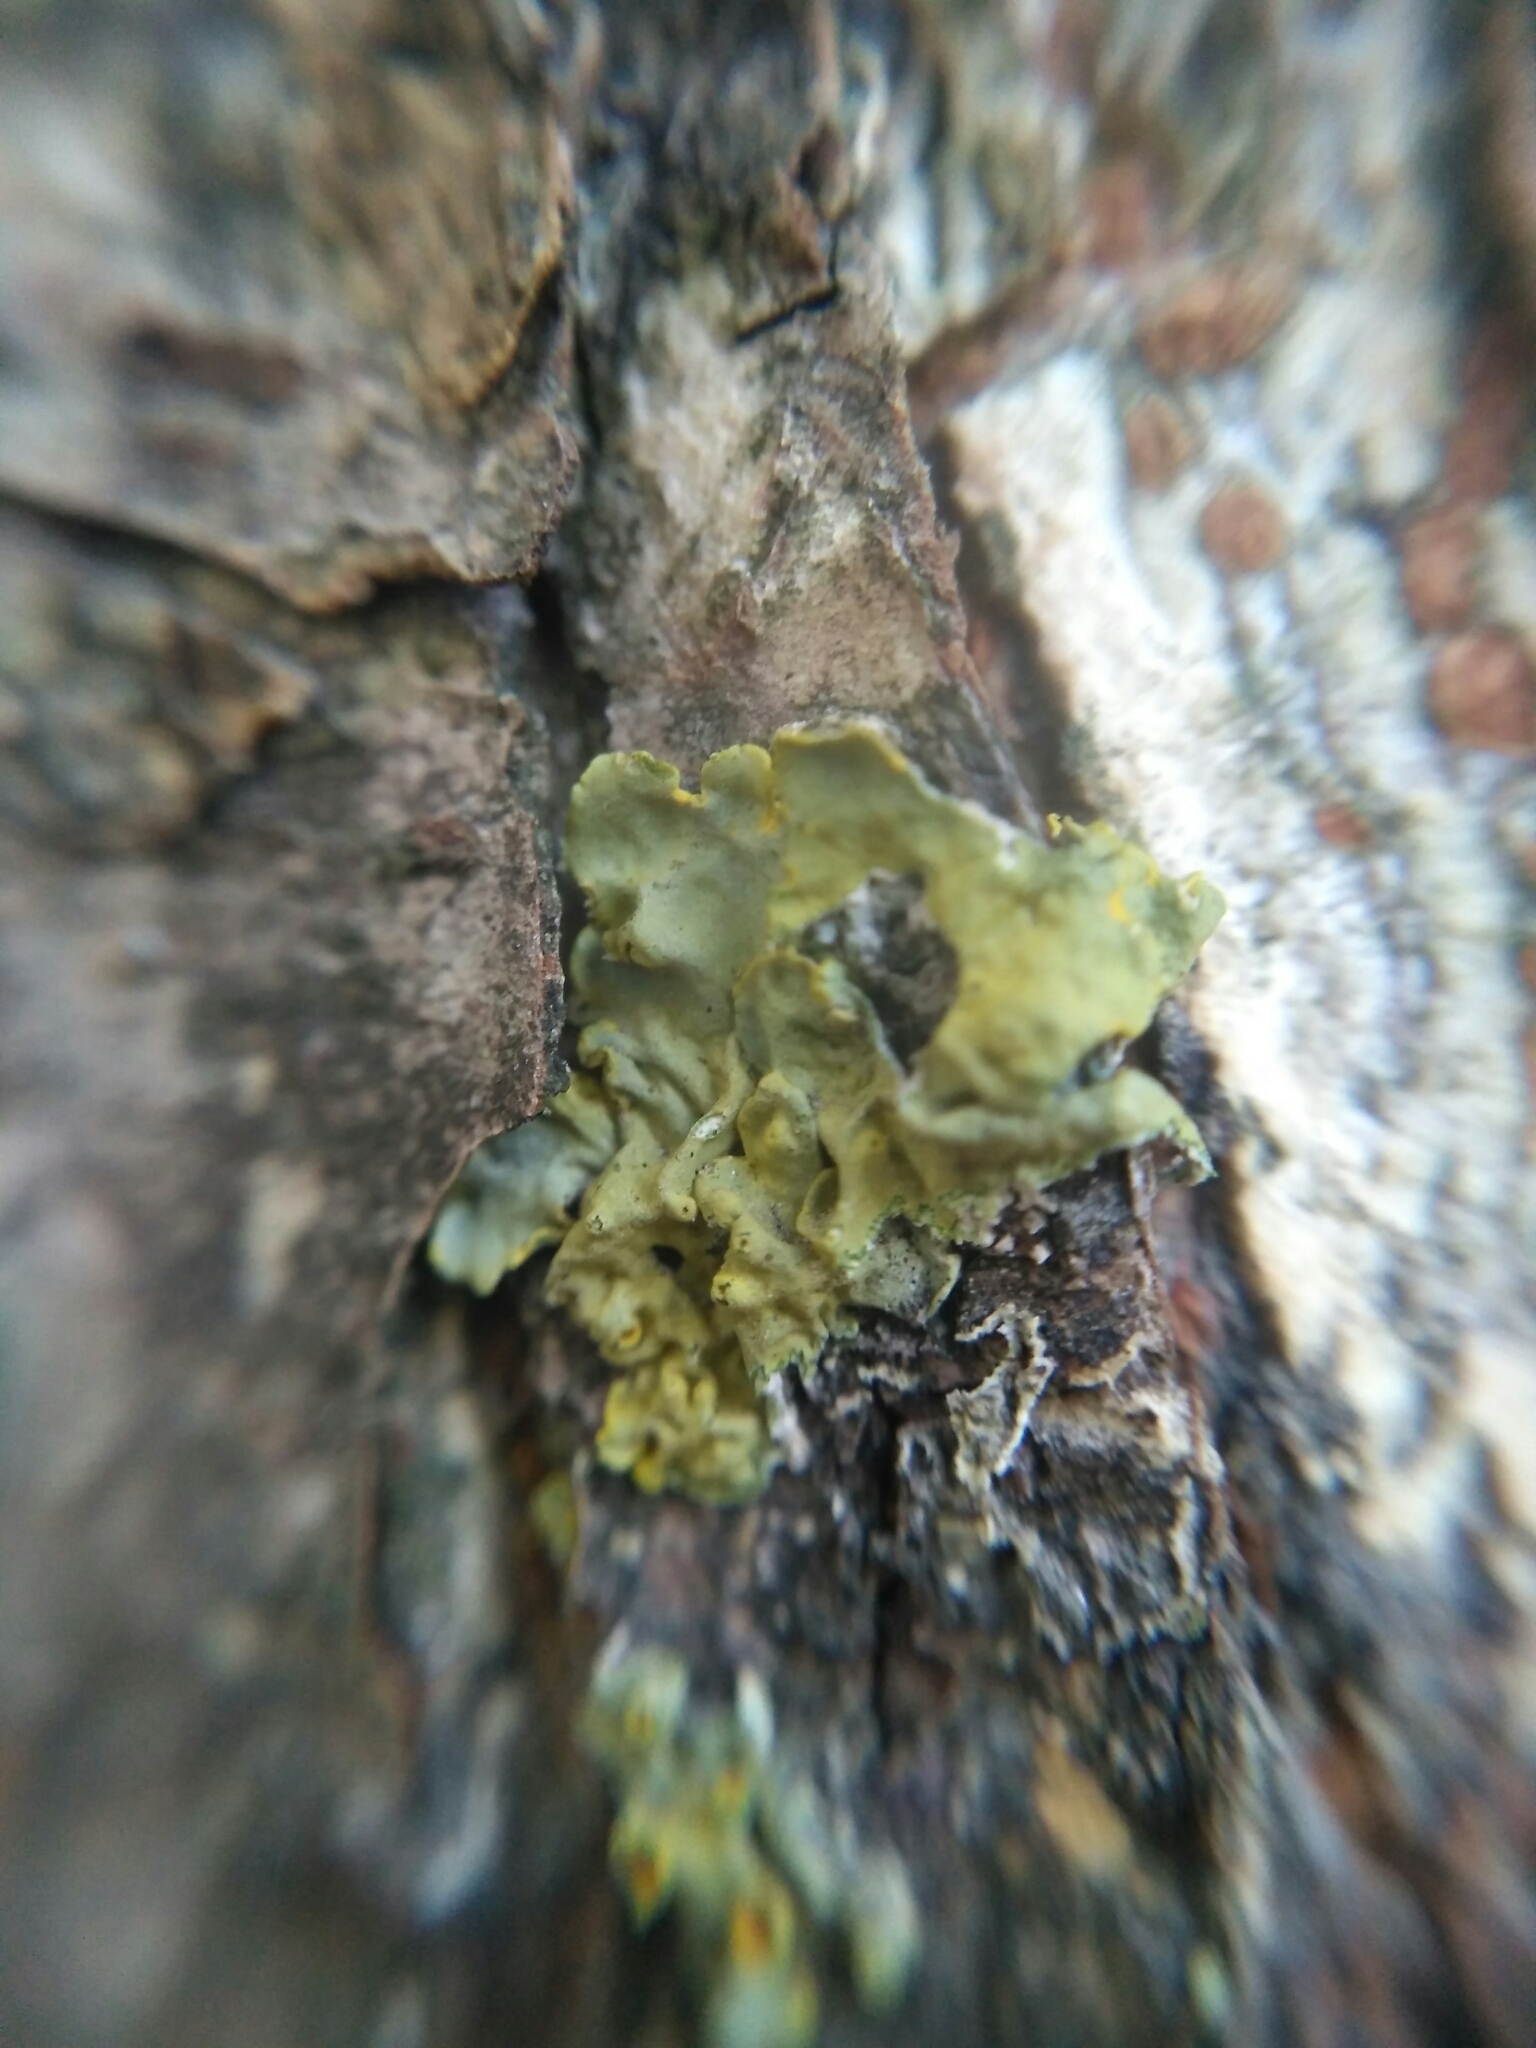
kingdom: Fungi
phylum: Ascomycota
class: Lecanoromycetes
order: Teloschistales
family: Teloschistaceae
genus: Xanthoria
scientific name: Xanthoria parietina
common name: Common orange lichen
